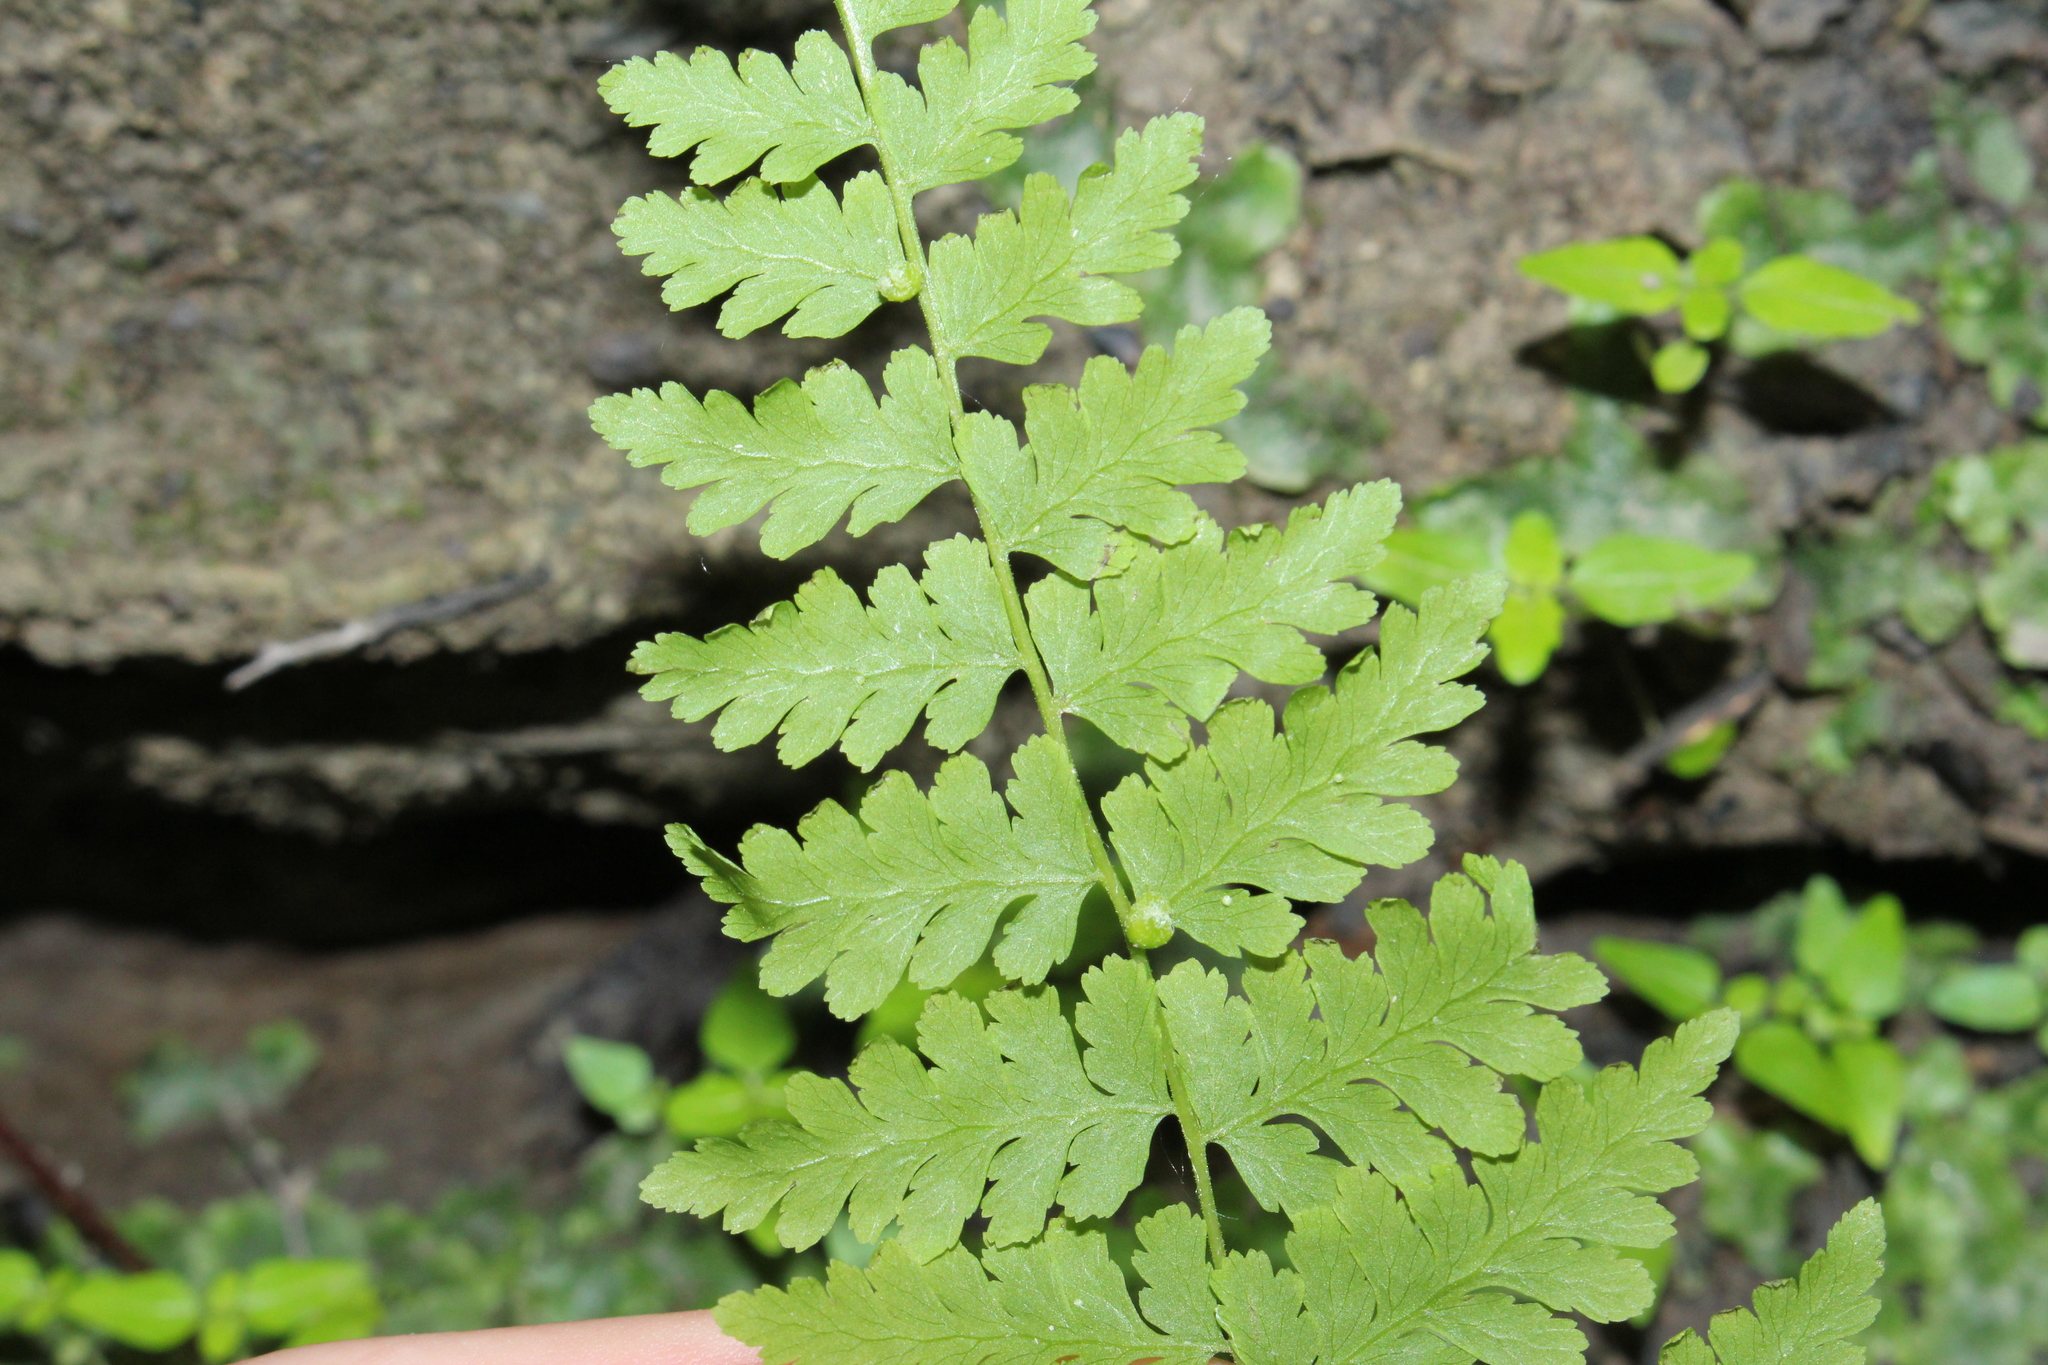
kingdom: Plantae
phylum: Tracheophyta
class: Polypodiopsida
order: Polypodiales
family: Cystopteridaceae
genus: Cystopteris
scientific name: Cystopteris bulbifera
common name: Bulblet bladder fern
